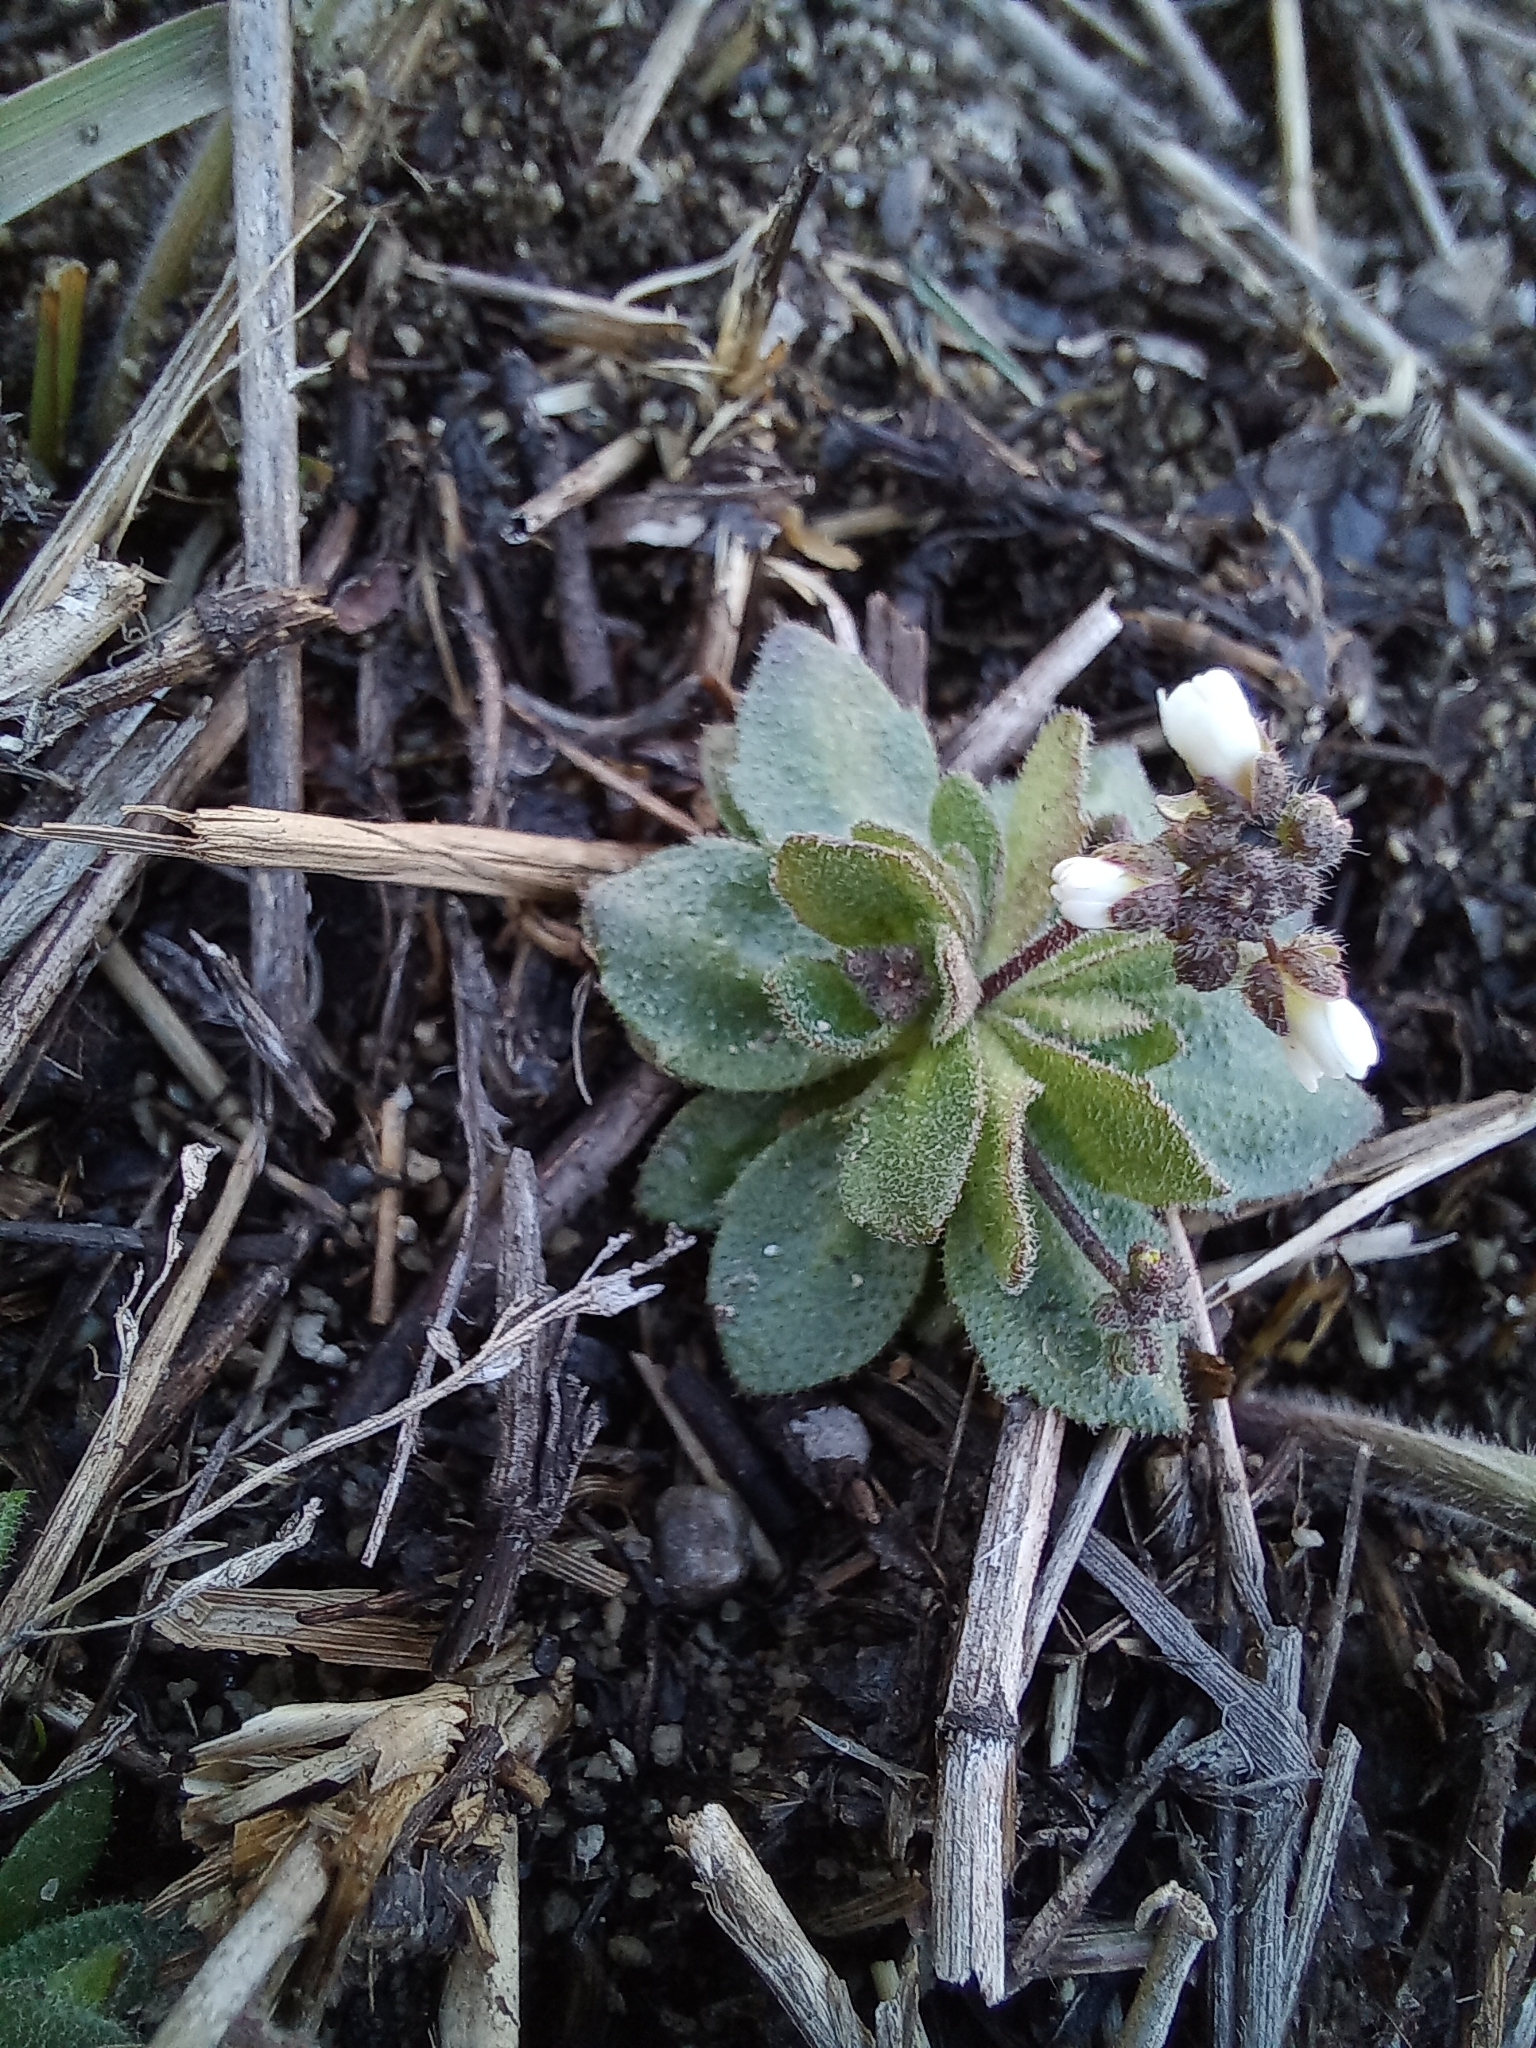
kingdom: Plantae
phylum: Tracheophyta
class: Magnoliopsida
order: Brassicales
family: Brassicaceae
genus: Draba
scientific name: Draba verna
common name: Spring draba
